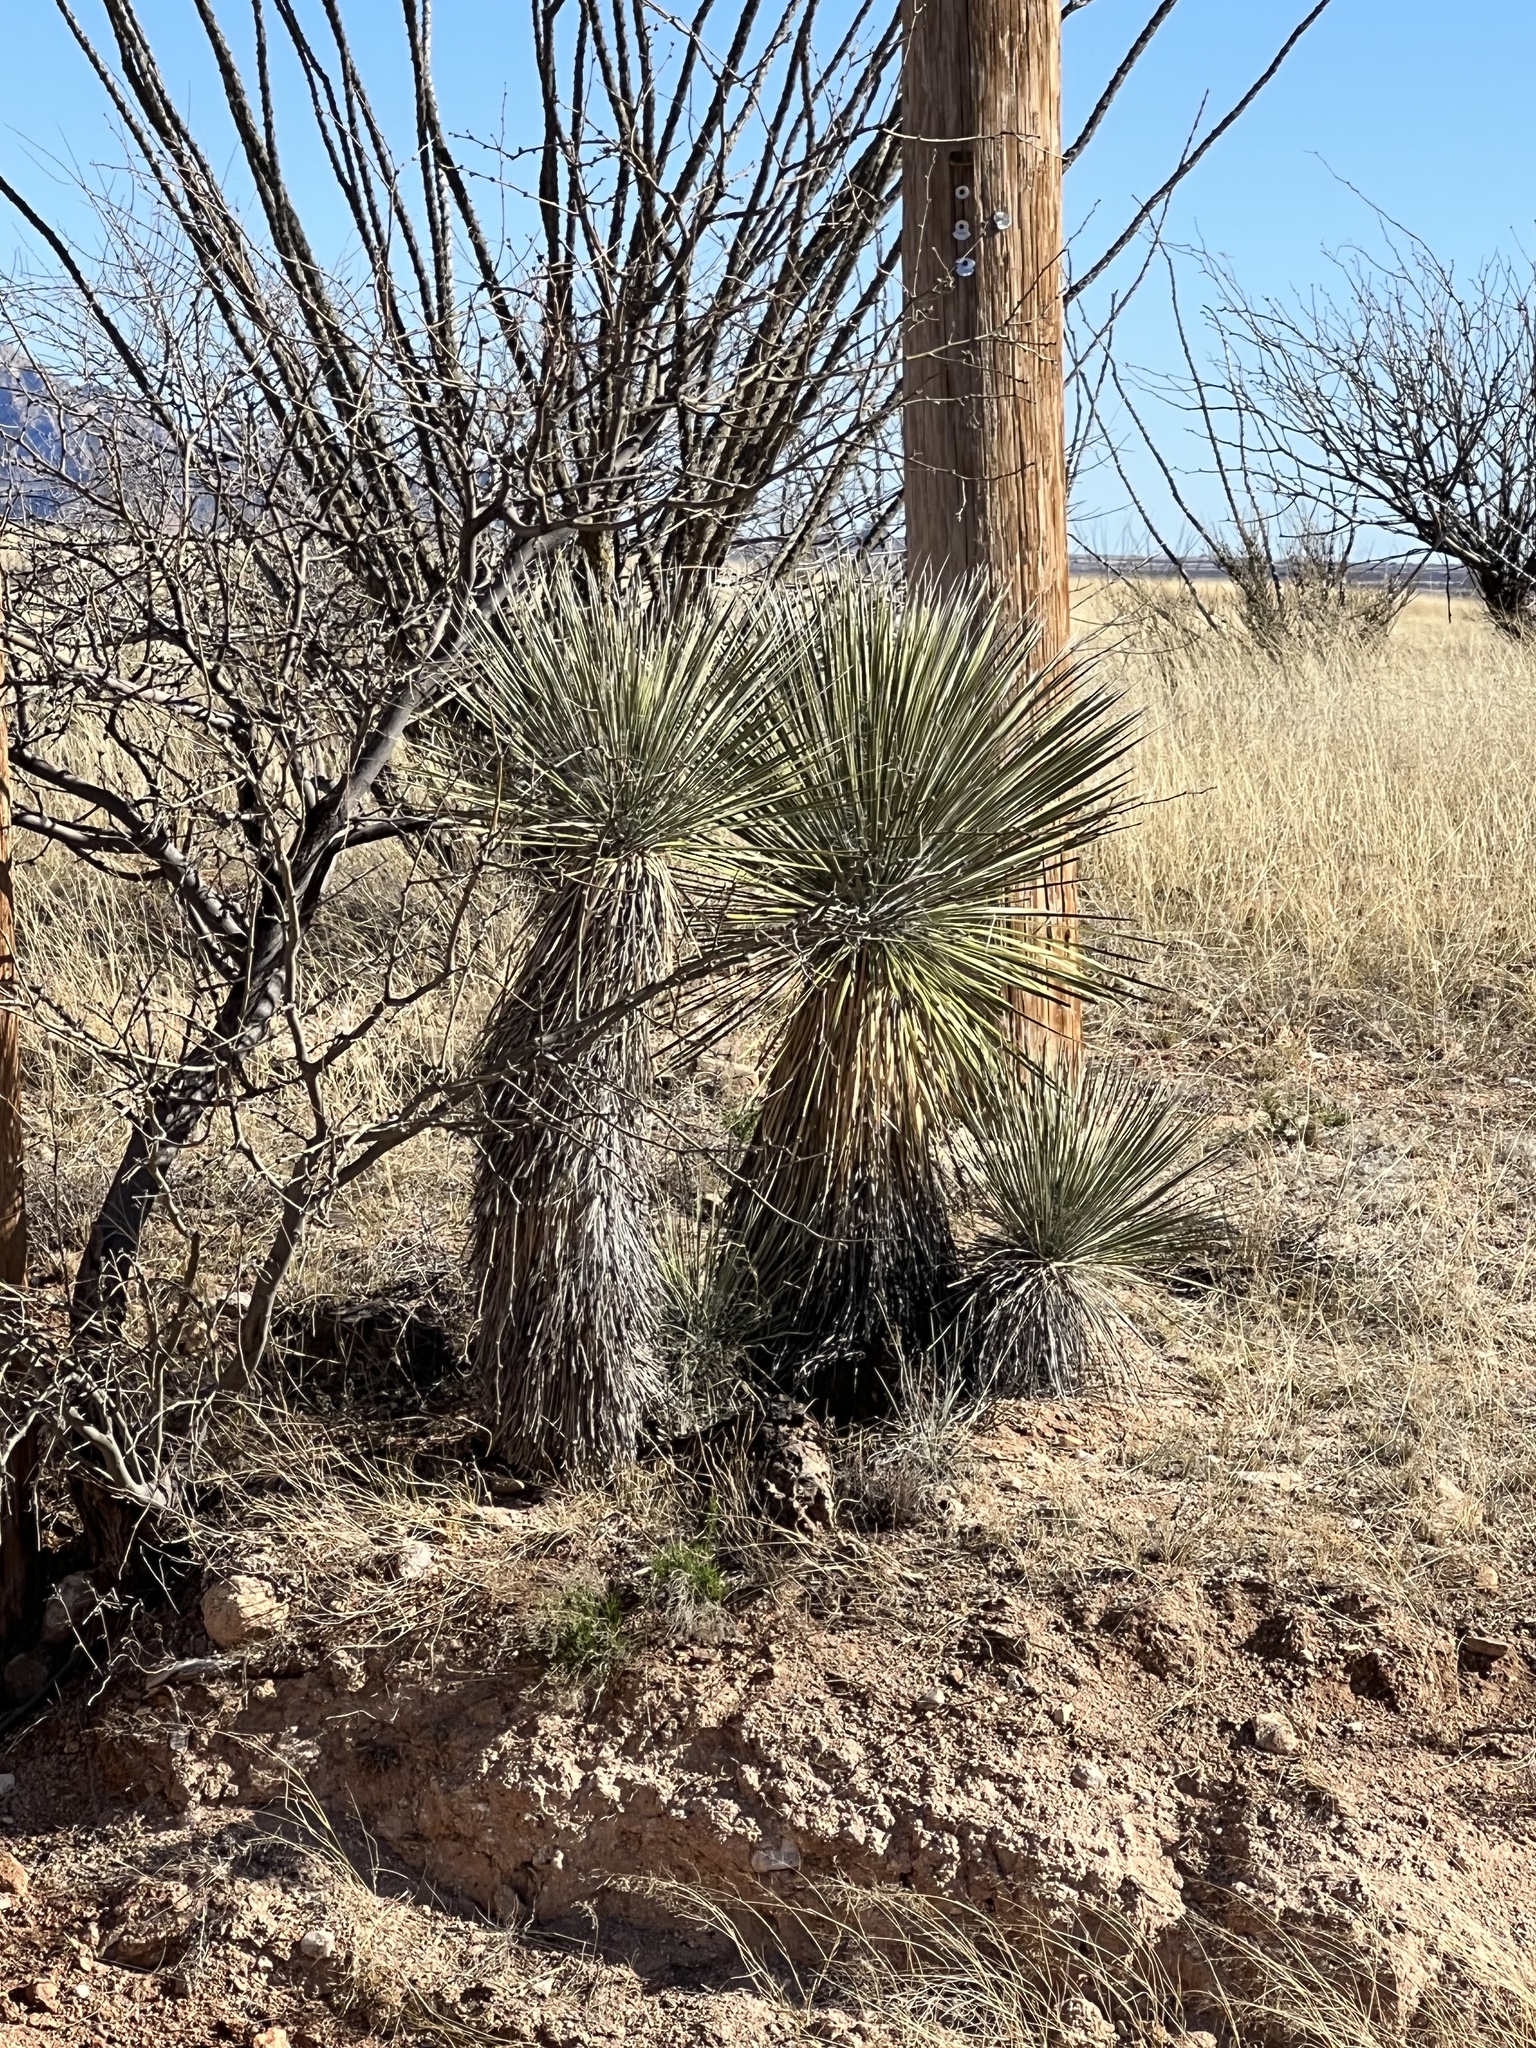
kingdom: Plantae
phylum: Tracheophyta
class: Liliopsida
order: Asparagales
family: Asparagaceae
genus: Yucca
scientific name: Yucca elata
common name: Palmella
